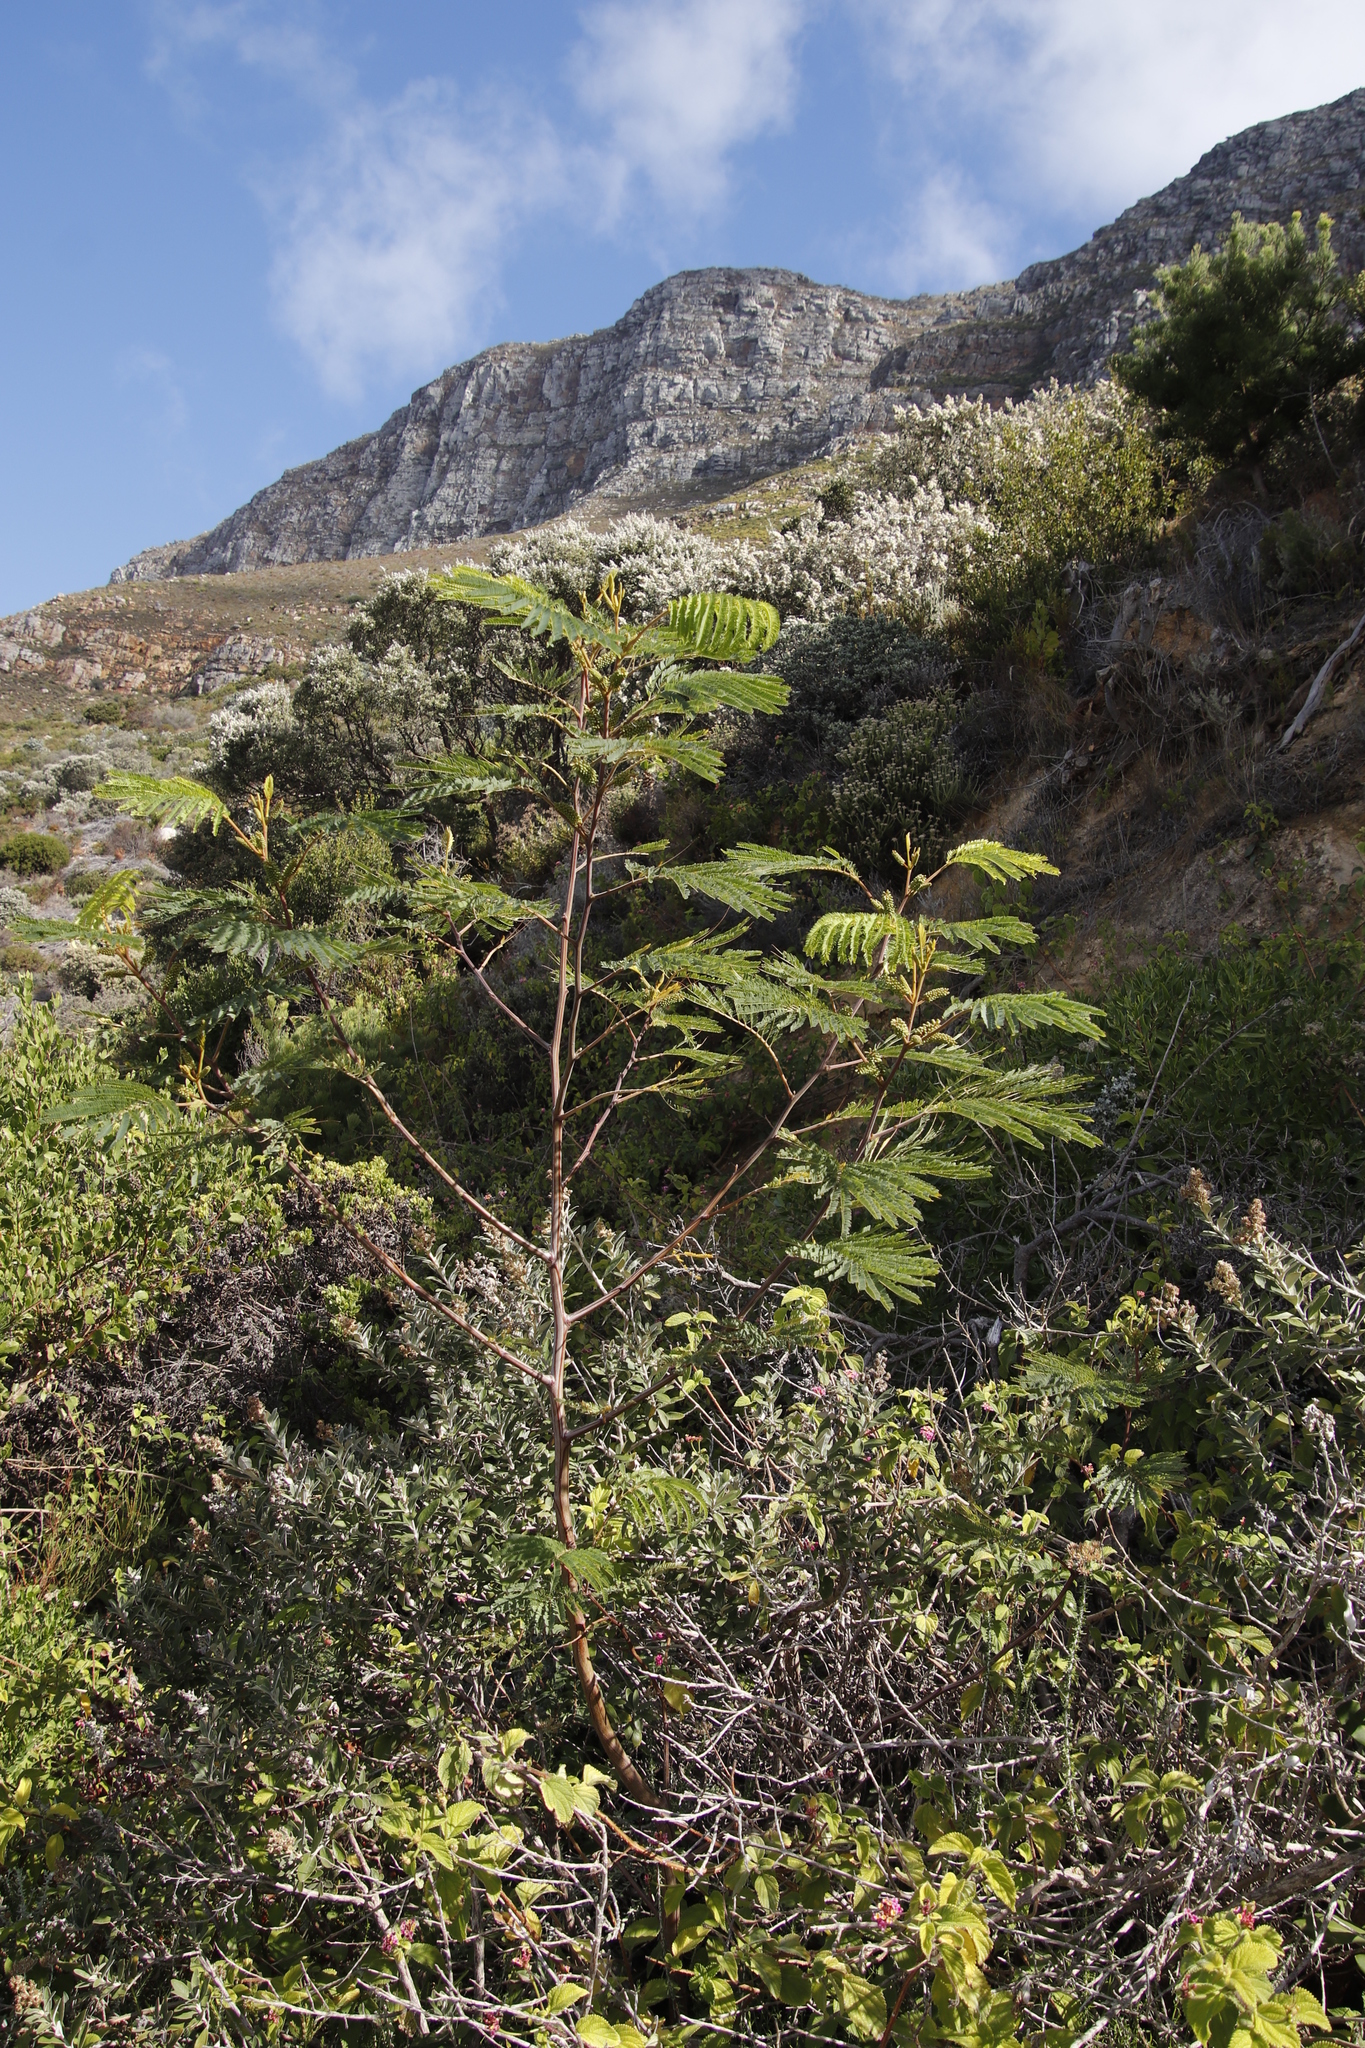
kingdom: Plantae
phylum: Tracheophyta
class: Magnoliopsida
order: Fabales
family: Fabaceae
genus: Paraserianthes
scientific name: Paraserianthes lophantha
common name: Plume albizia
